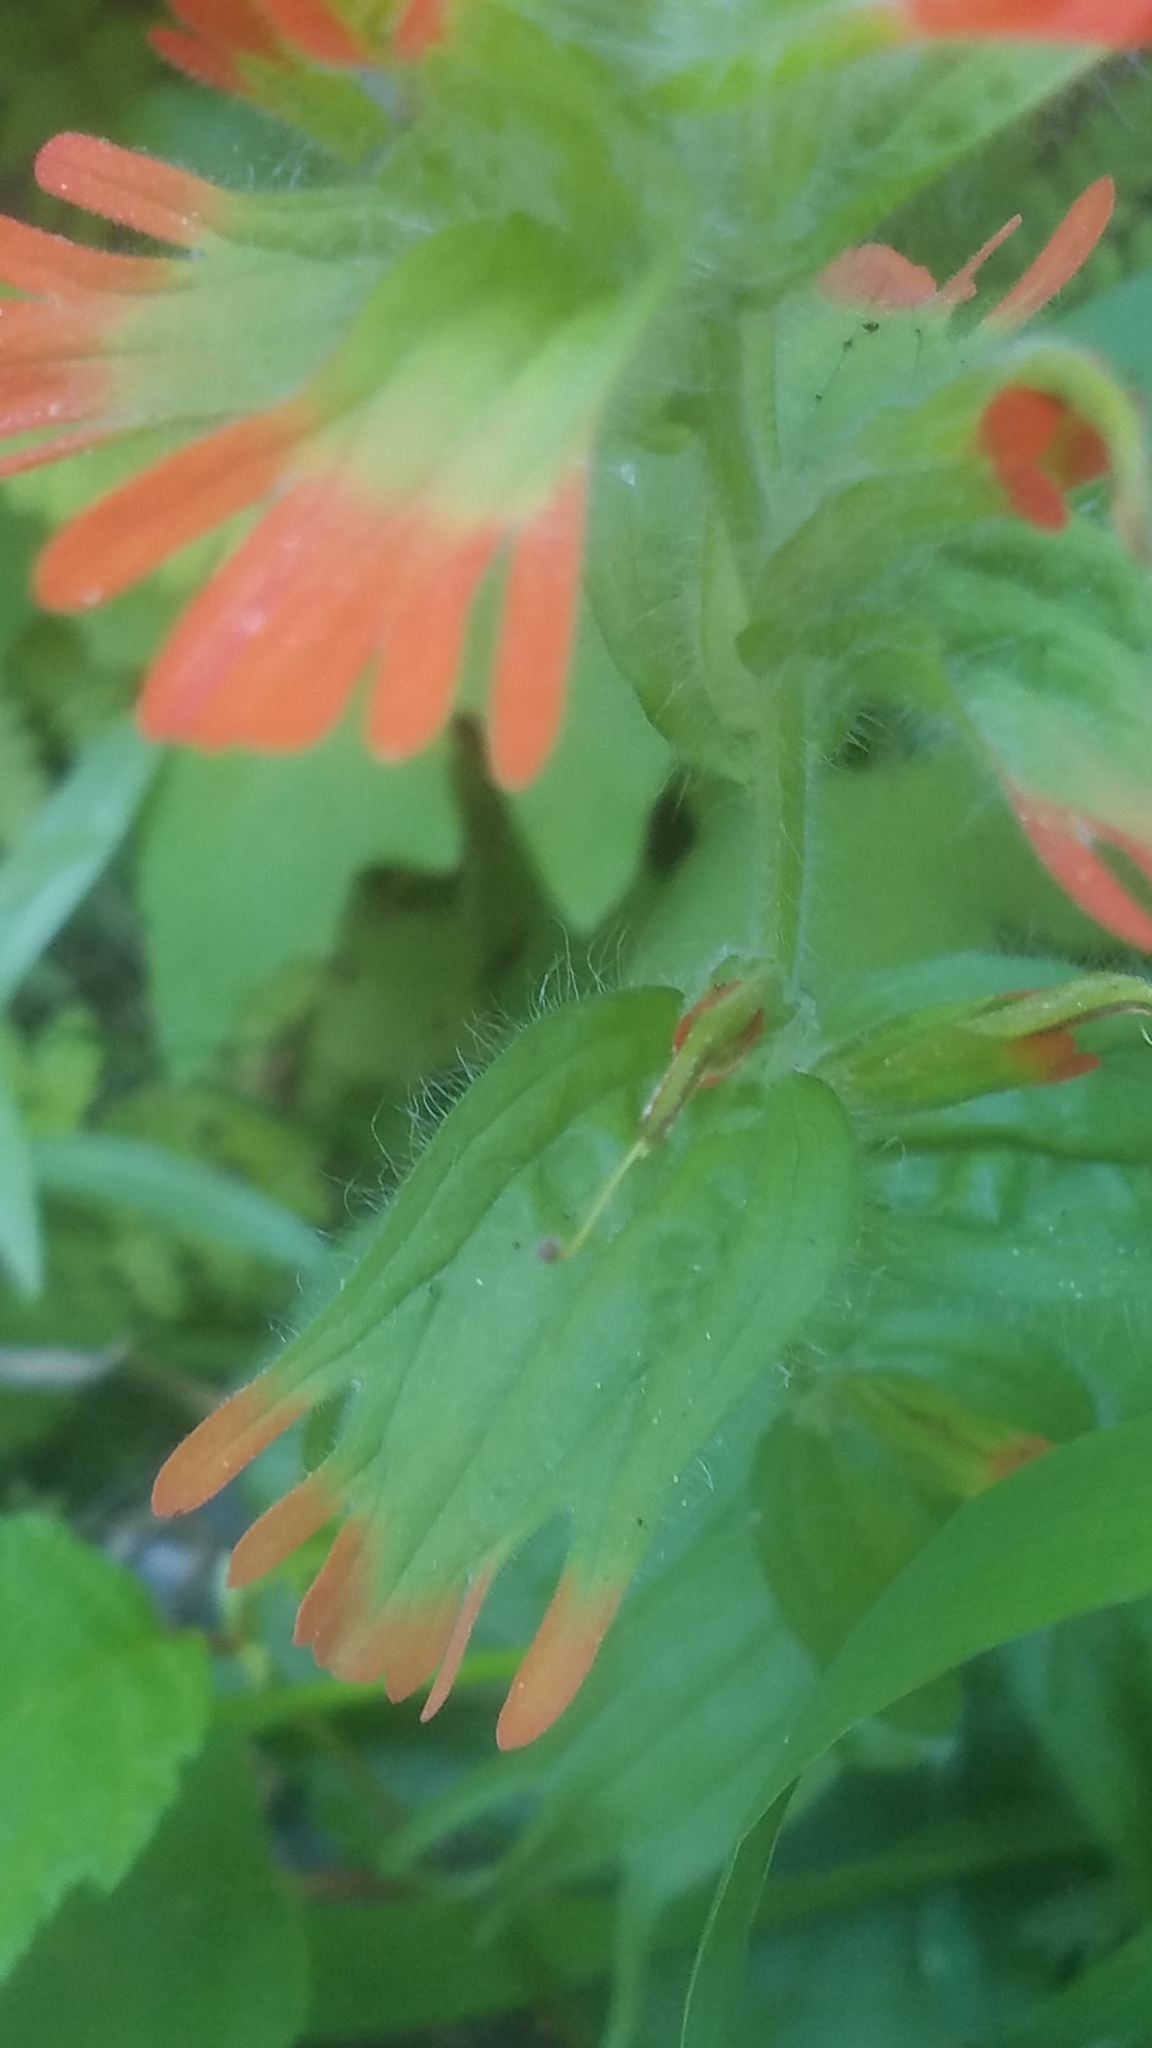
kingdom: Plantae
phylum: Tracheophyta
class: Magnoliopsida
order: Lamiales
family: Orobanchaceae
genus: Castilleja
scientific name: Castilleja hispida
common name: Bristly paintbrush
